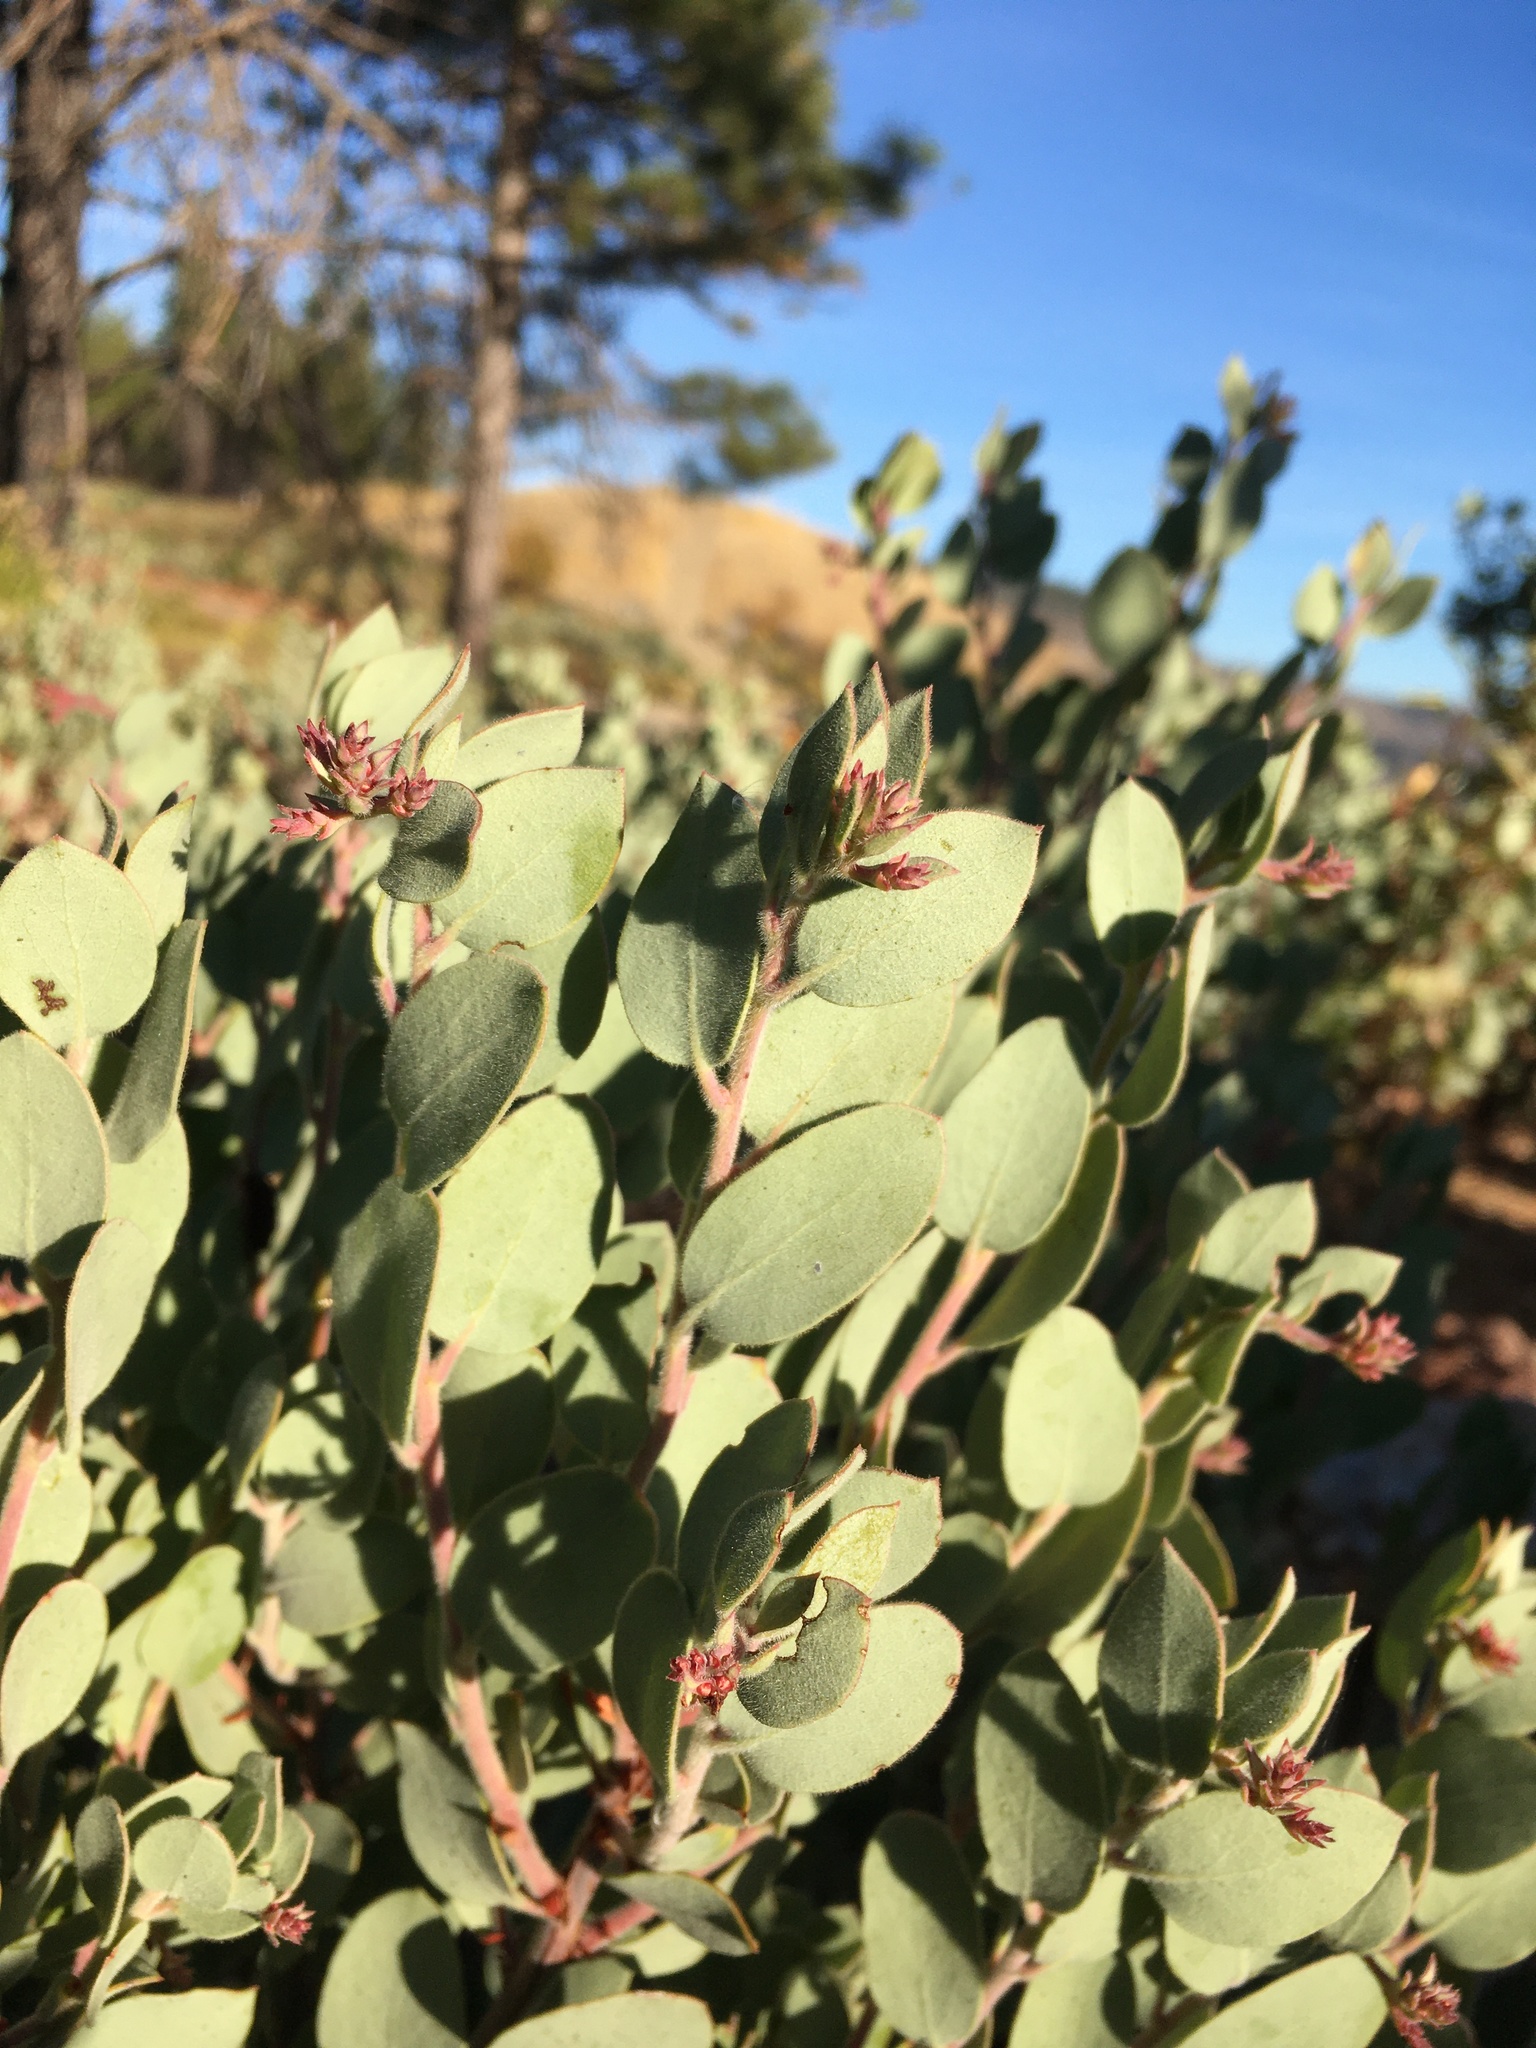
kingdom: Plantae
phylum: Tracheophyta
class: Magnoliopsida
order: Ericales
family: Ericaceae
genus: Arctostaphylos
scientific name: Arctostaphylos nissenana
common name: Nissenan manzanita
